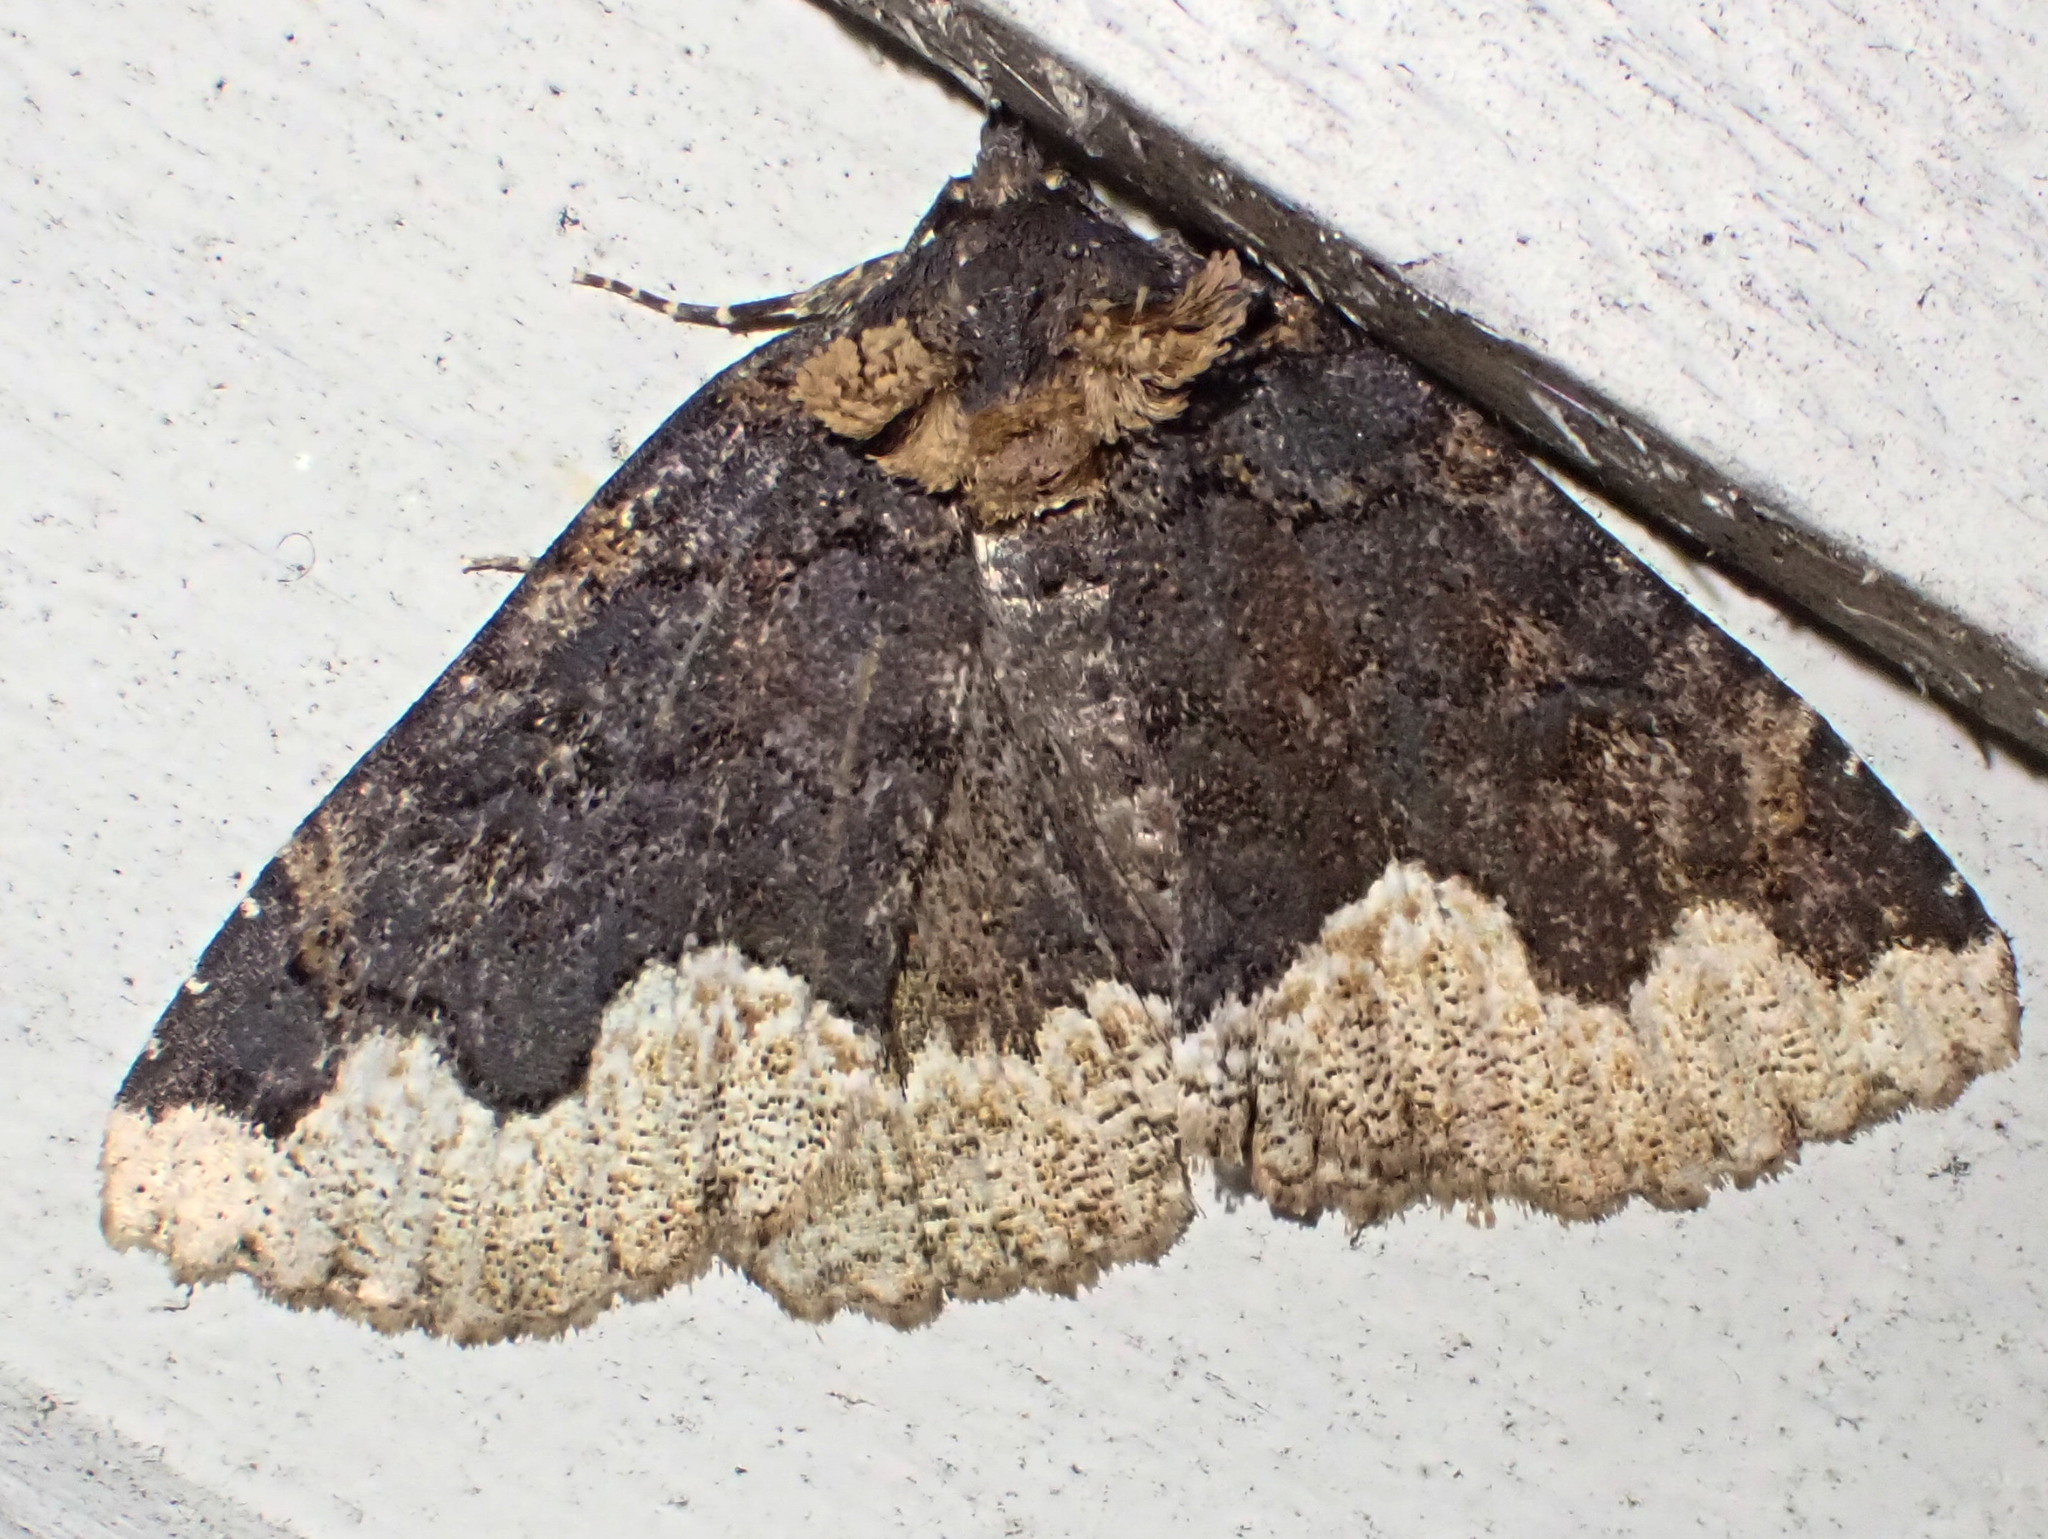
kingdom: Animalia
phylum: Arthropoda
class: Insecta
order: Lepidoptera
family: Erebidae
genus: Zale
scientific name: Zale horrida
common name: Horrid zale moth
